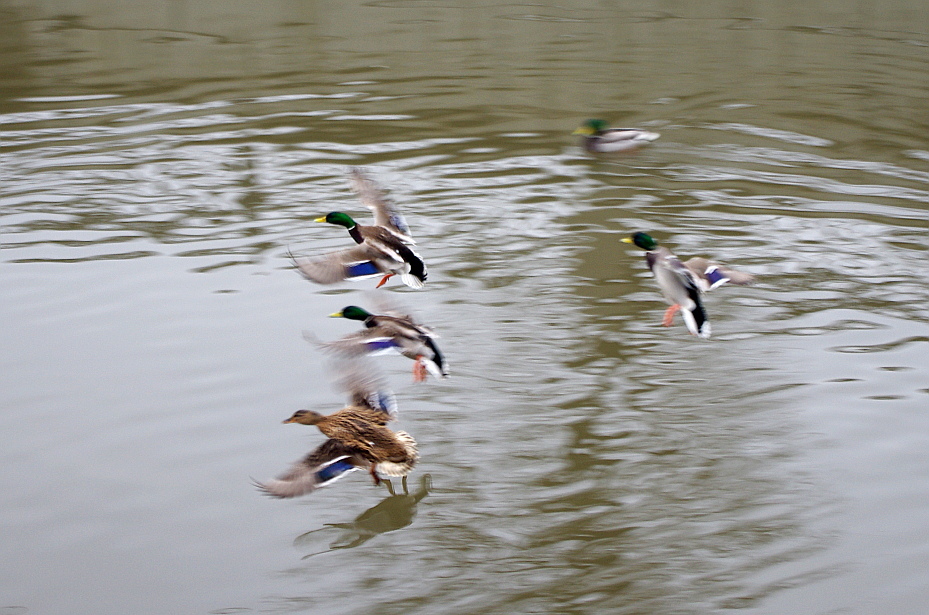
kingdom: Animalia
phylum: Chordata
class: Aves
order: Anseriformes
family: Anatidae
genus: Anas
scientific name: Anas platyrhynchos
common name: Mallard
